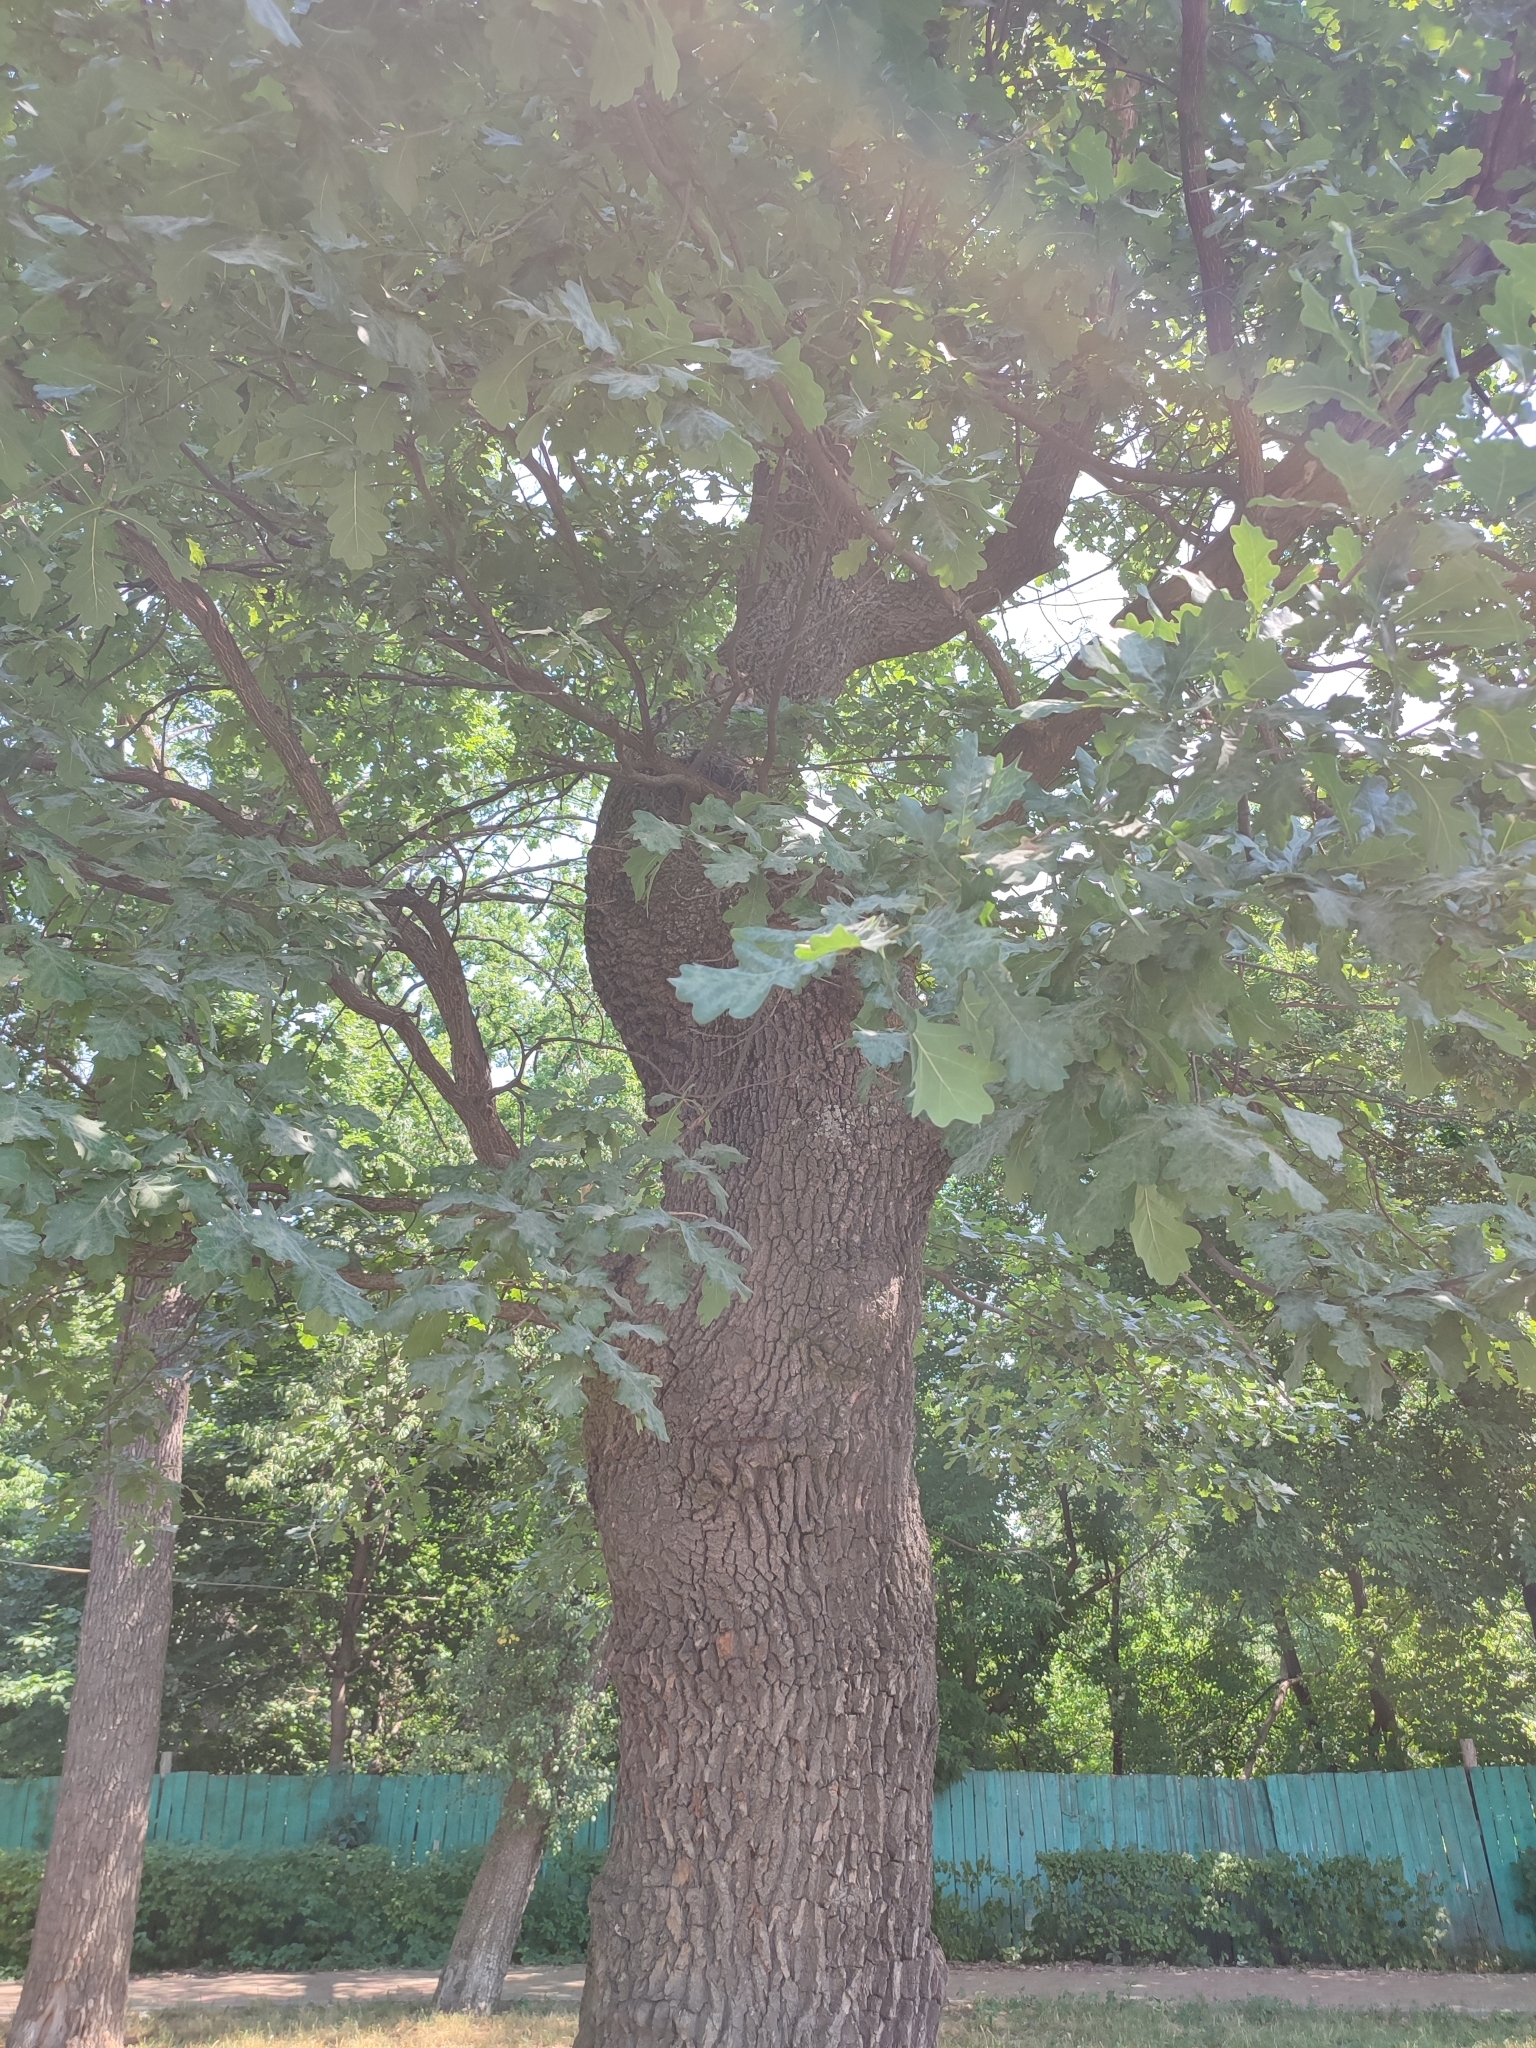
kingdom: Plantae
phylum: Tracheophyta
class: Magnoliopsida
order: Fagales
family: Fagaceae
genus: Quercus
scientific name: Quercus robur
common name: Pedunculate oak
